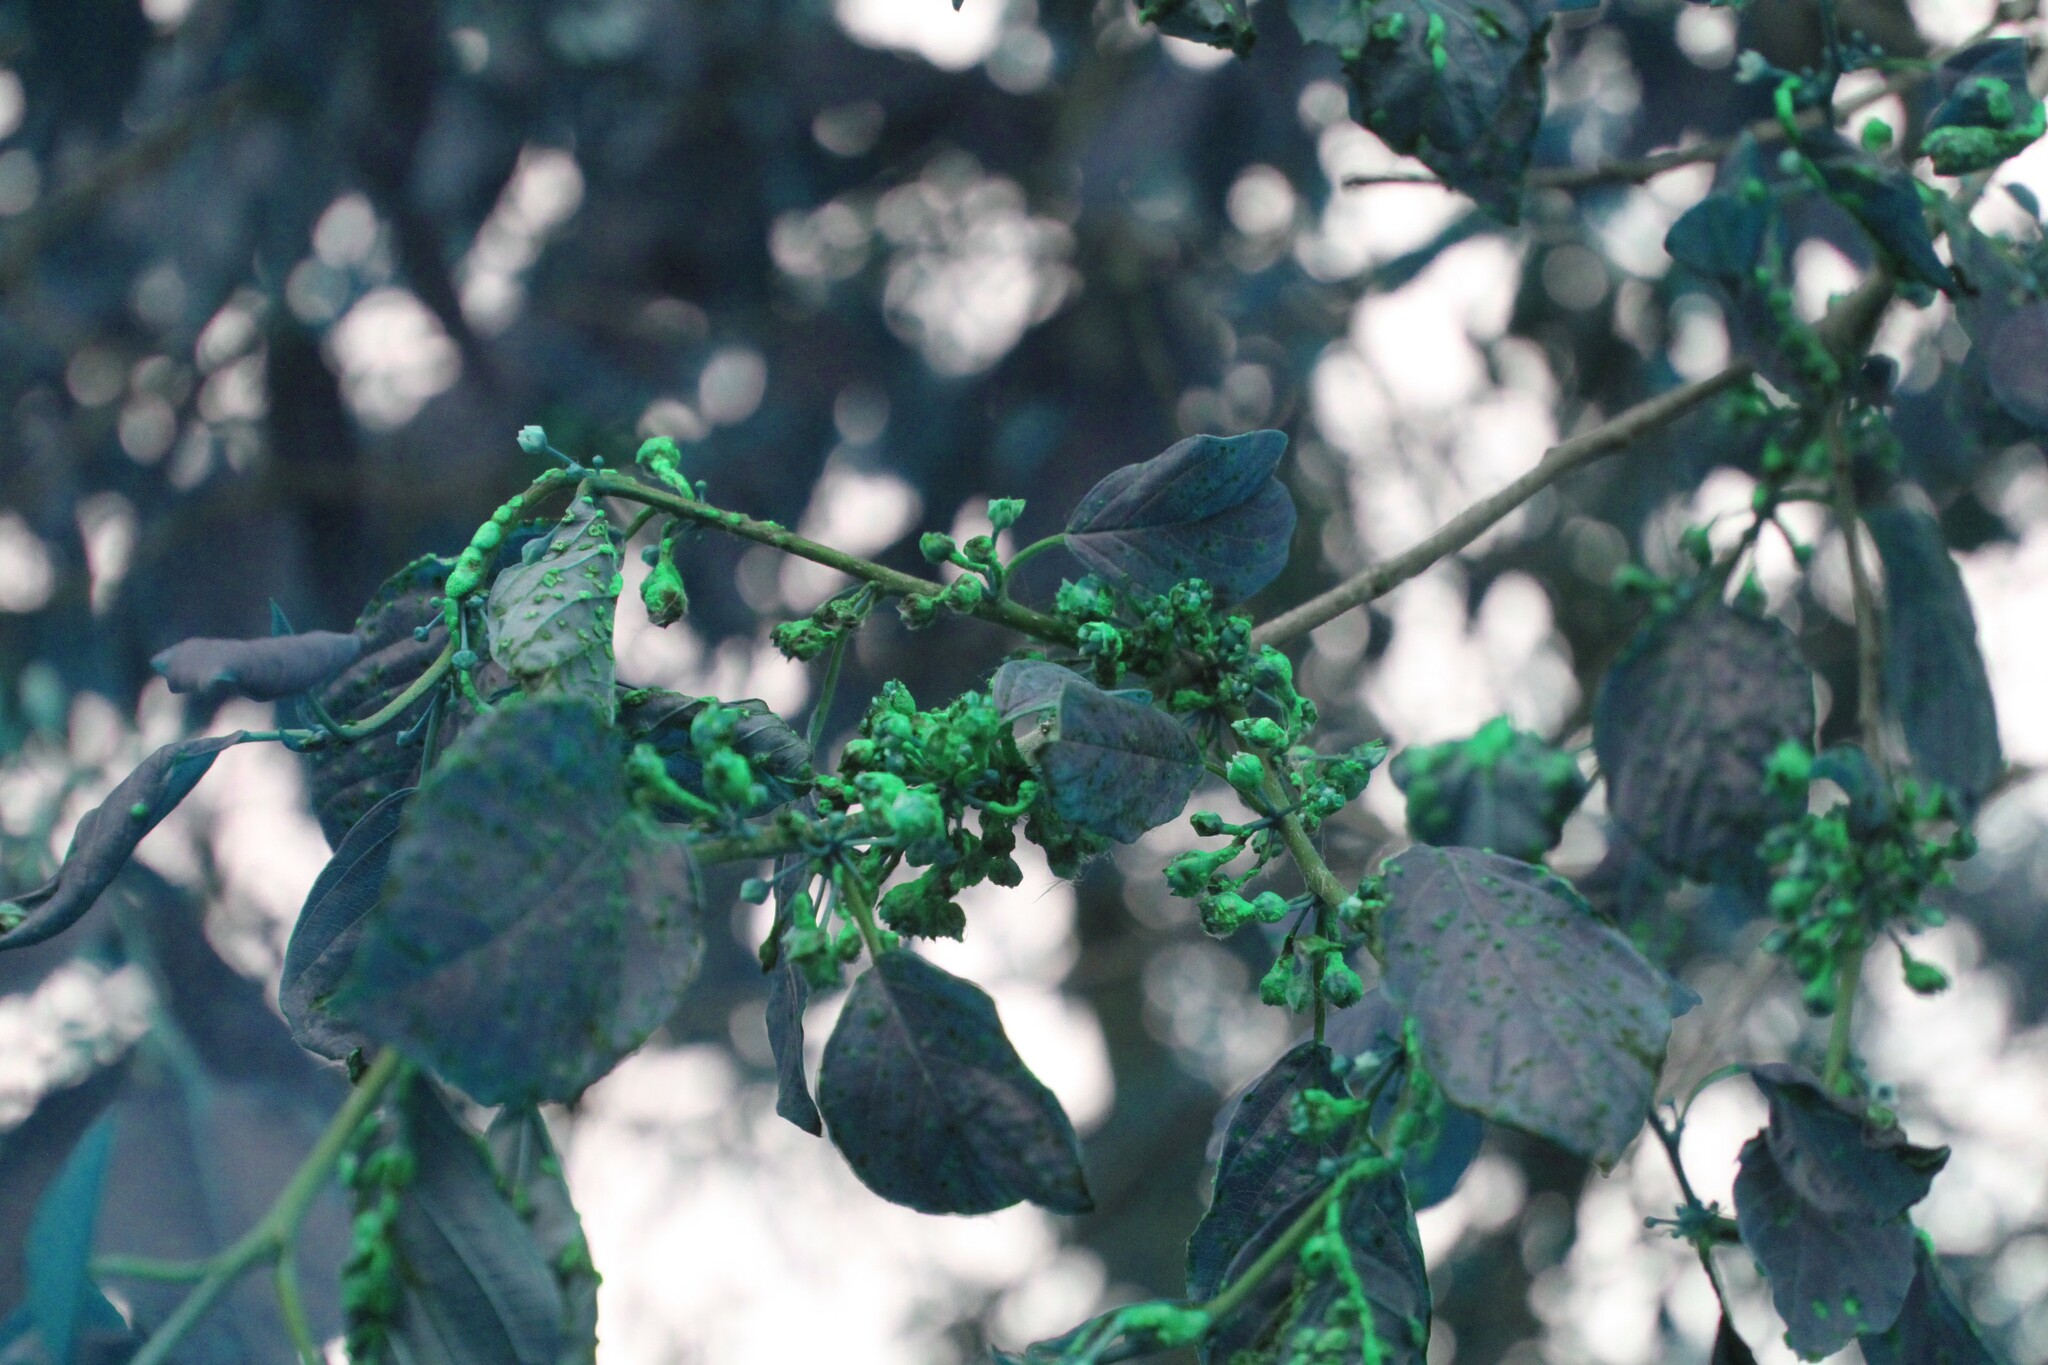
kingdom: Plantae
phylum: Tracheophyta
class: Magnoliopsida
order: Rosales
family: Rhamnaceae
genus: Frangula
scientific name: Frangula alnus
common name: Alder buckthorn
